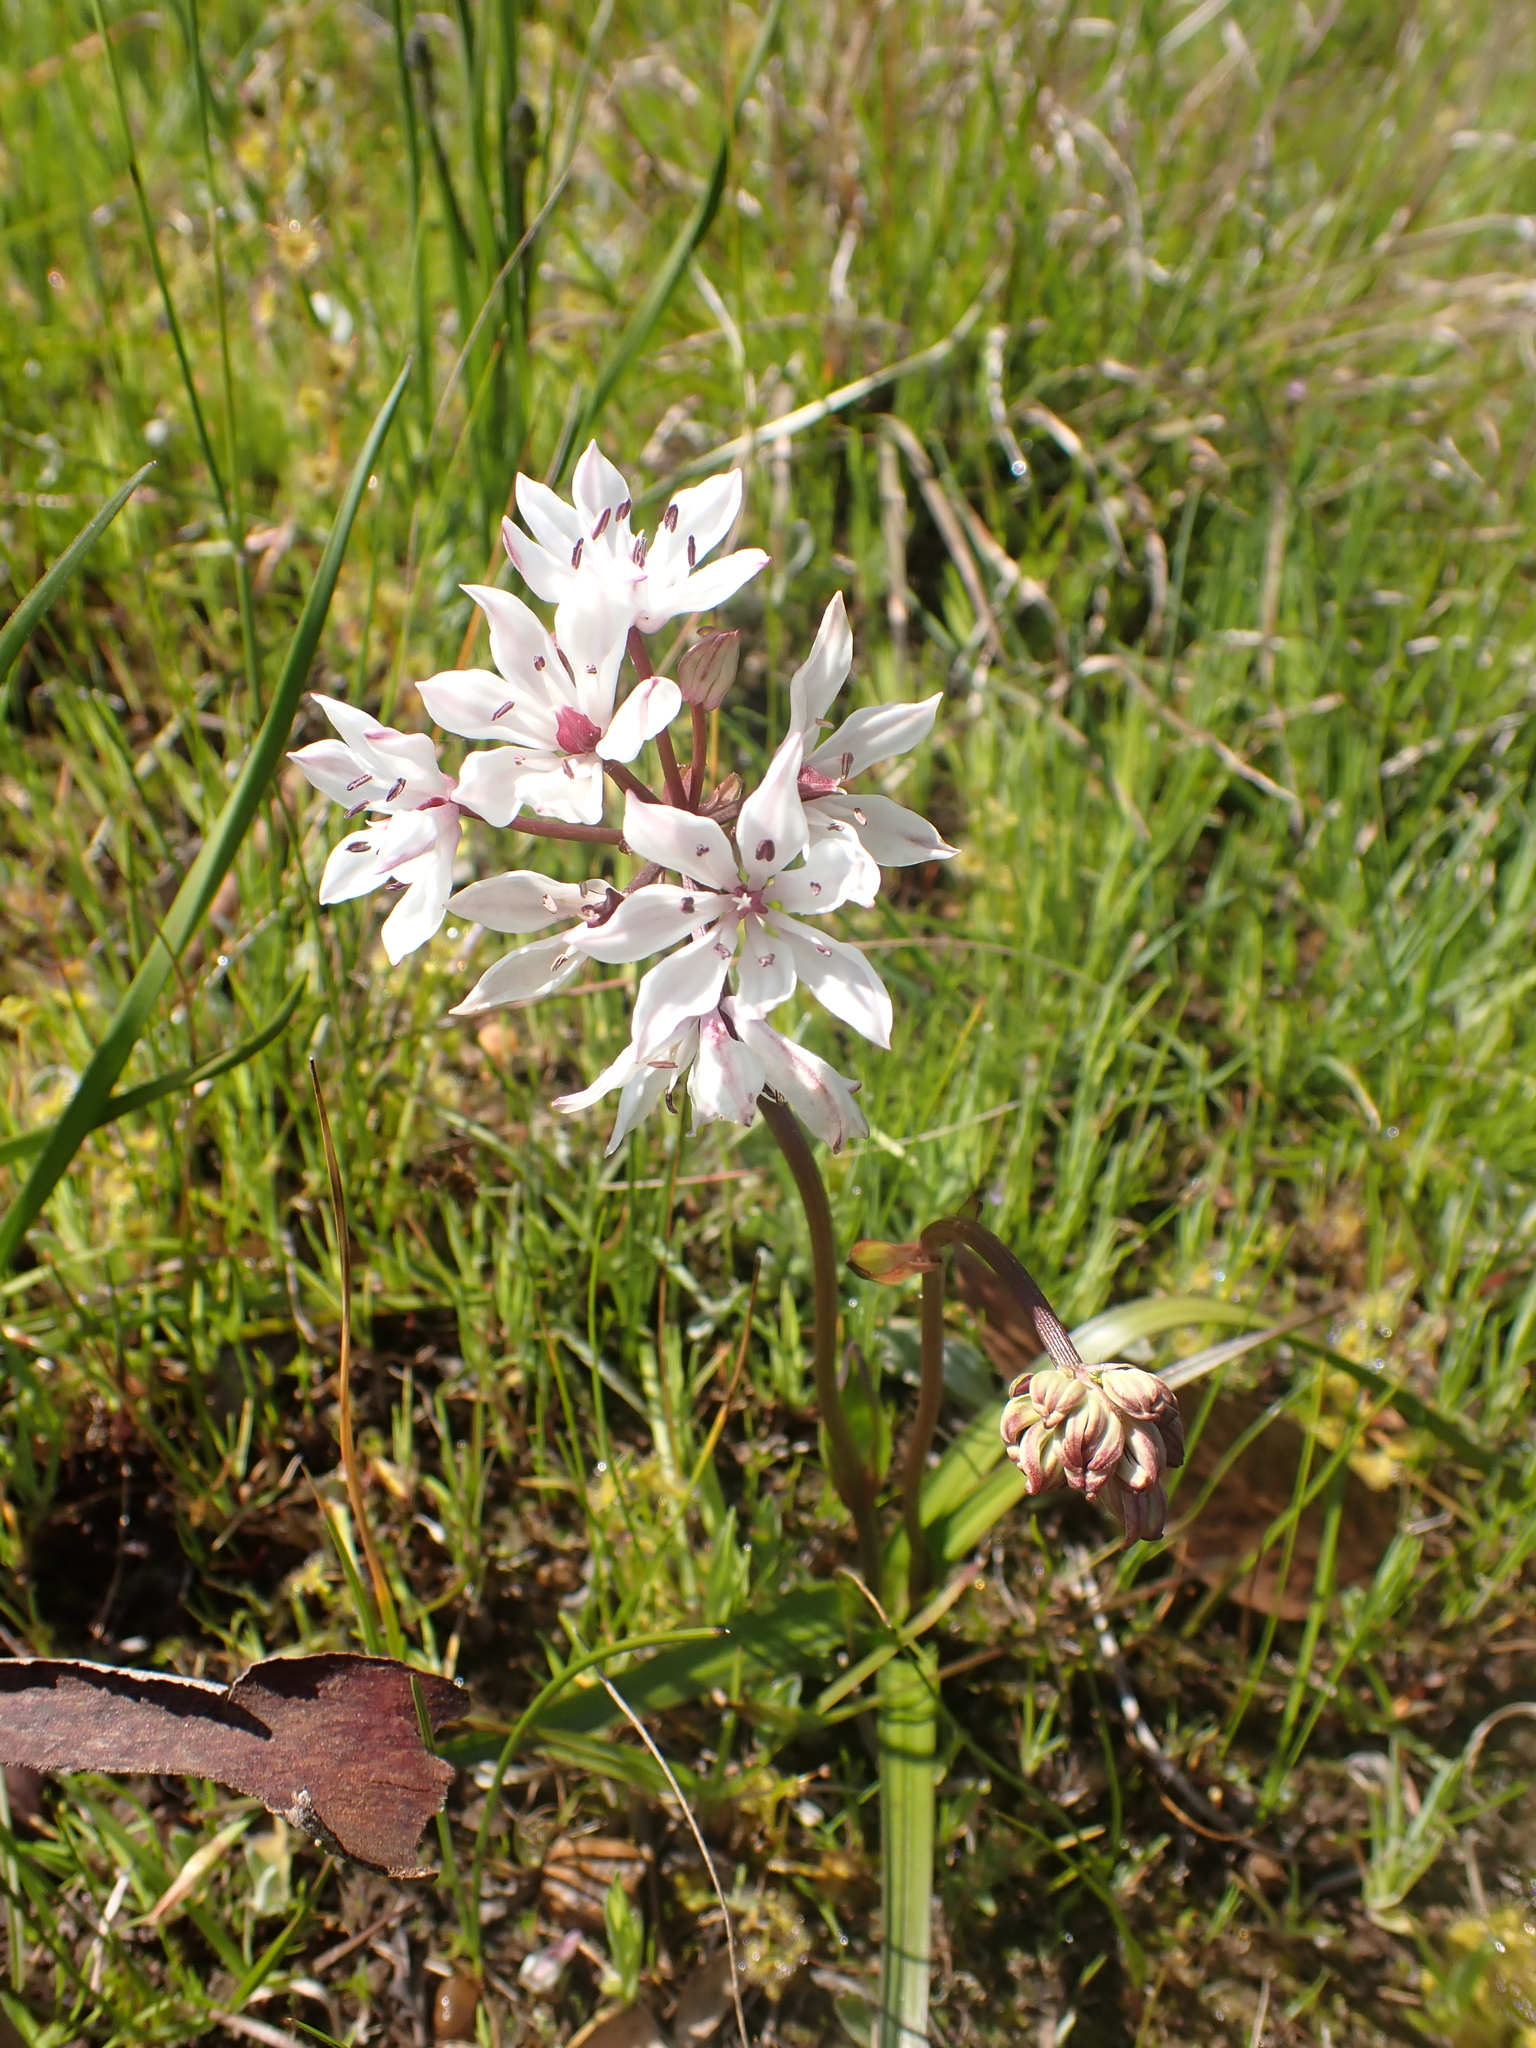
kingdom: Plantae
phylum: Tracheophyta
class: Liliopsida
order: Liliales
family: Colchicaceae
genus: Burchardia
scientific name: Burchardia umbellata
